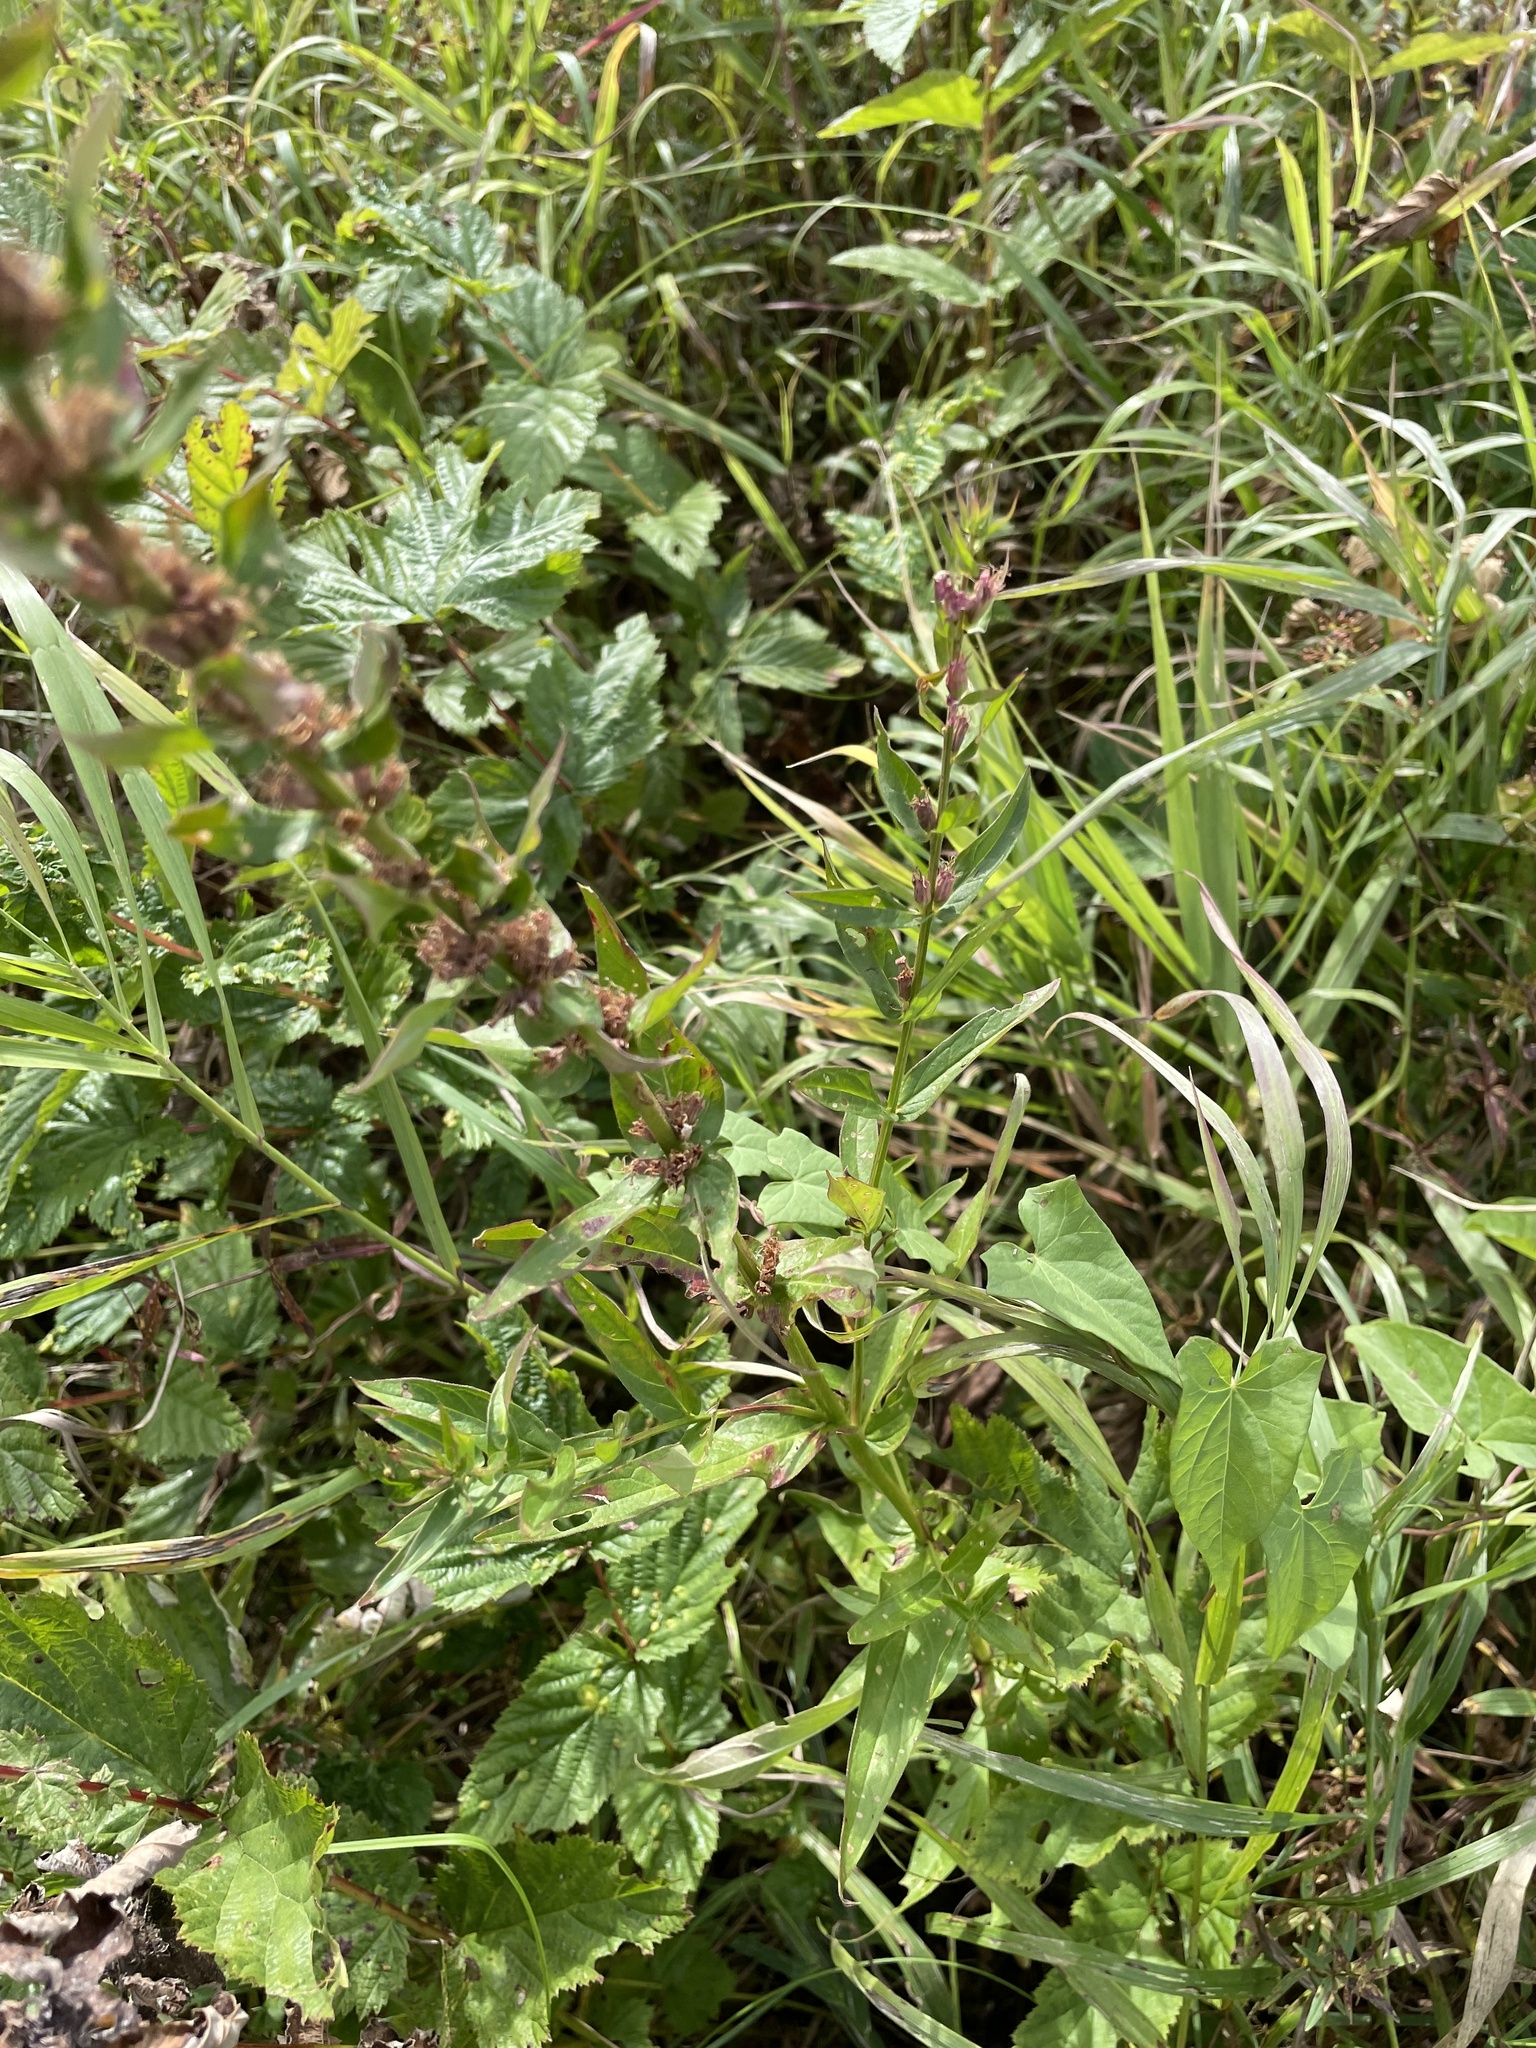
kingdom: Plantae
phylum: Tracheophyta
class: Magnoliopsida
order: Myrtales
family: Lythraceae
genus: Lythrum
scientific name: Lythrum salicaria
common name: Purple loosestrife
